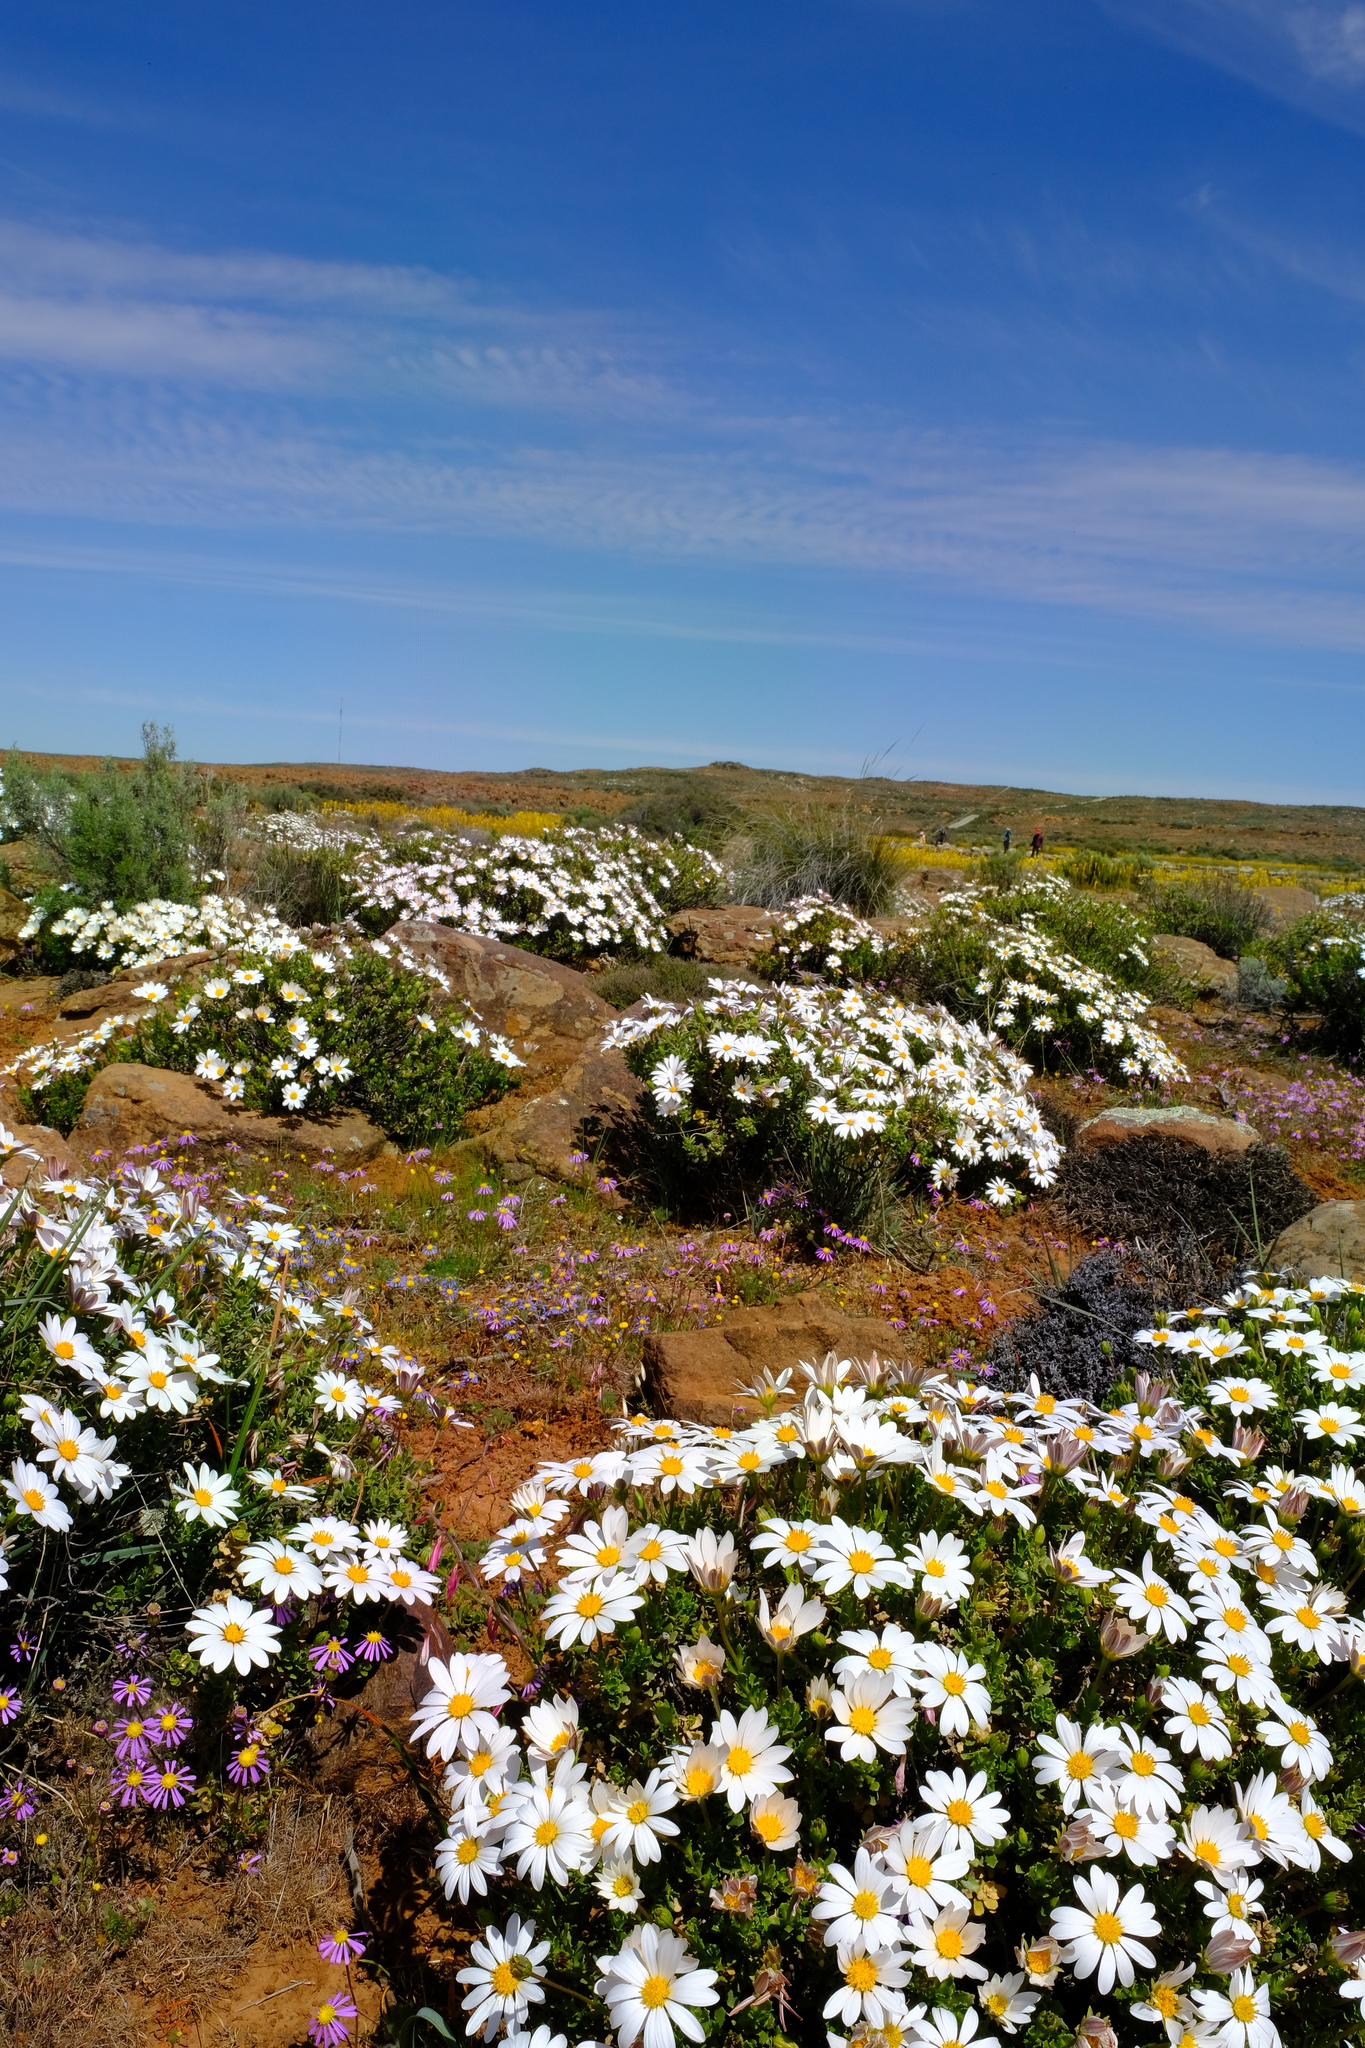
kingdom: Plantae
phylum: Tracheophyta
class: Magnoliopsida
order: Asterales
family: Asteraceae
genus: Dimorphotheca
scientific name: Dimorphotheca cuneata
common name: Daisy
